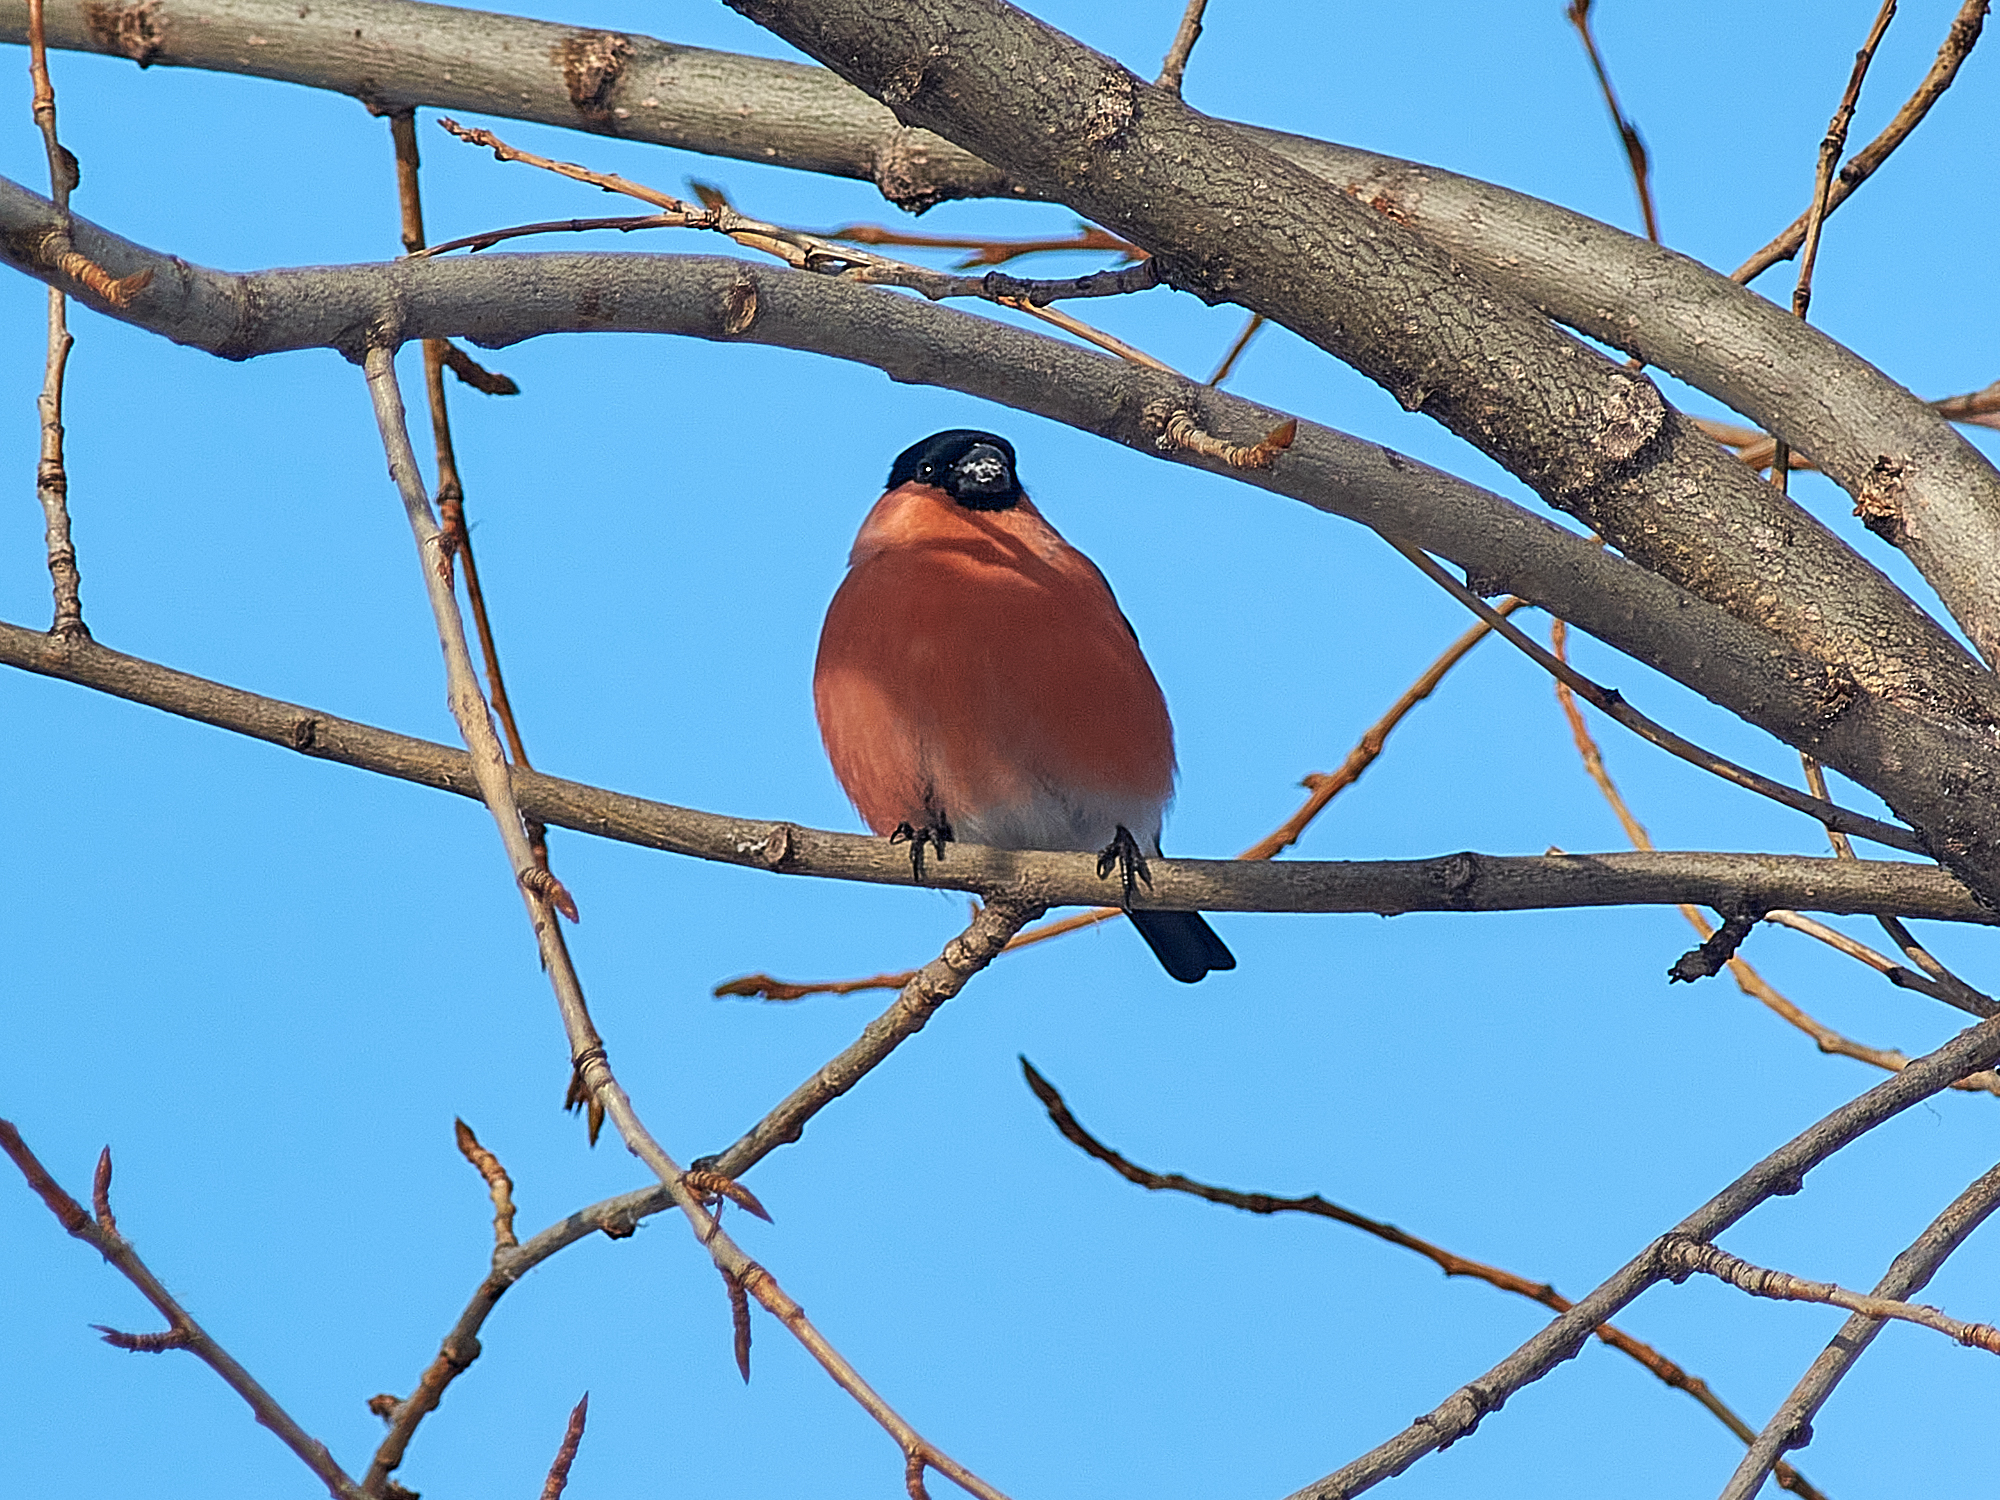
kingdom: Animalia
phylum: Chordata
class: Aves
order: Passeriformes
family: Fringillidae
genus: Pyrrhula
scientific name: Pyrrhula pyrrhula
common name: Eurasian bullfinch
